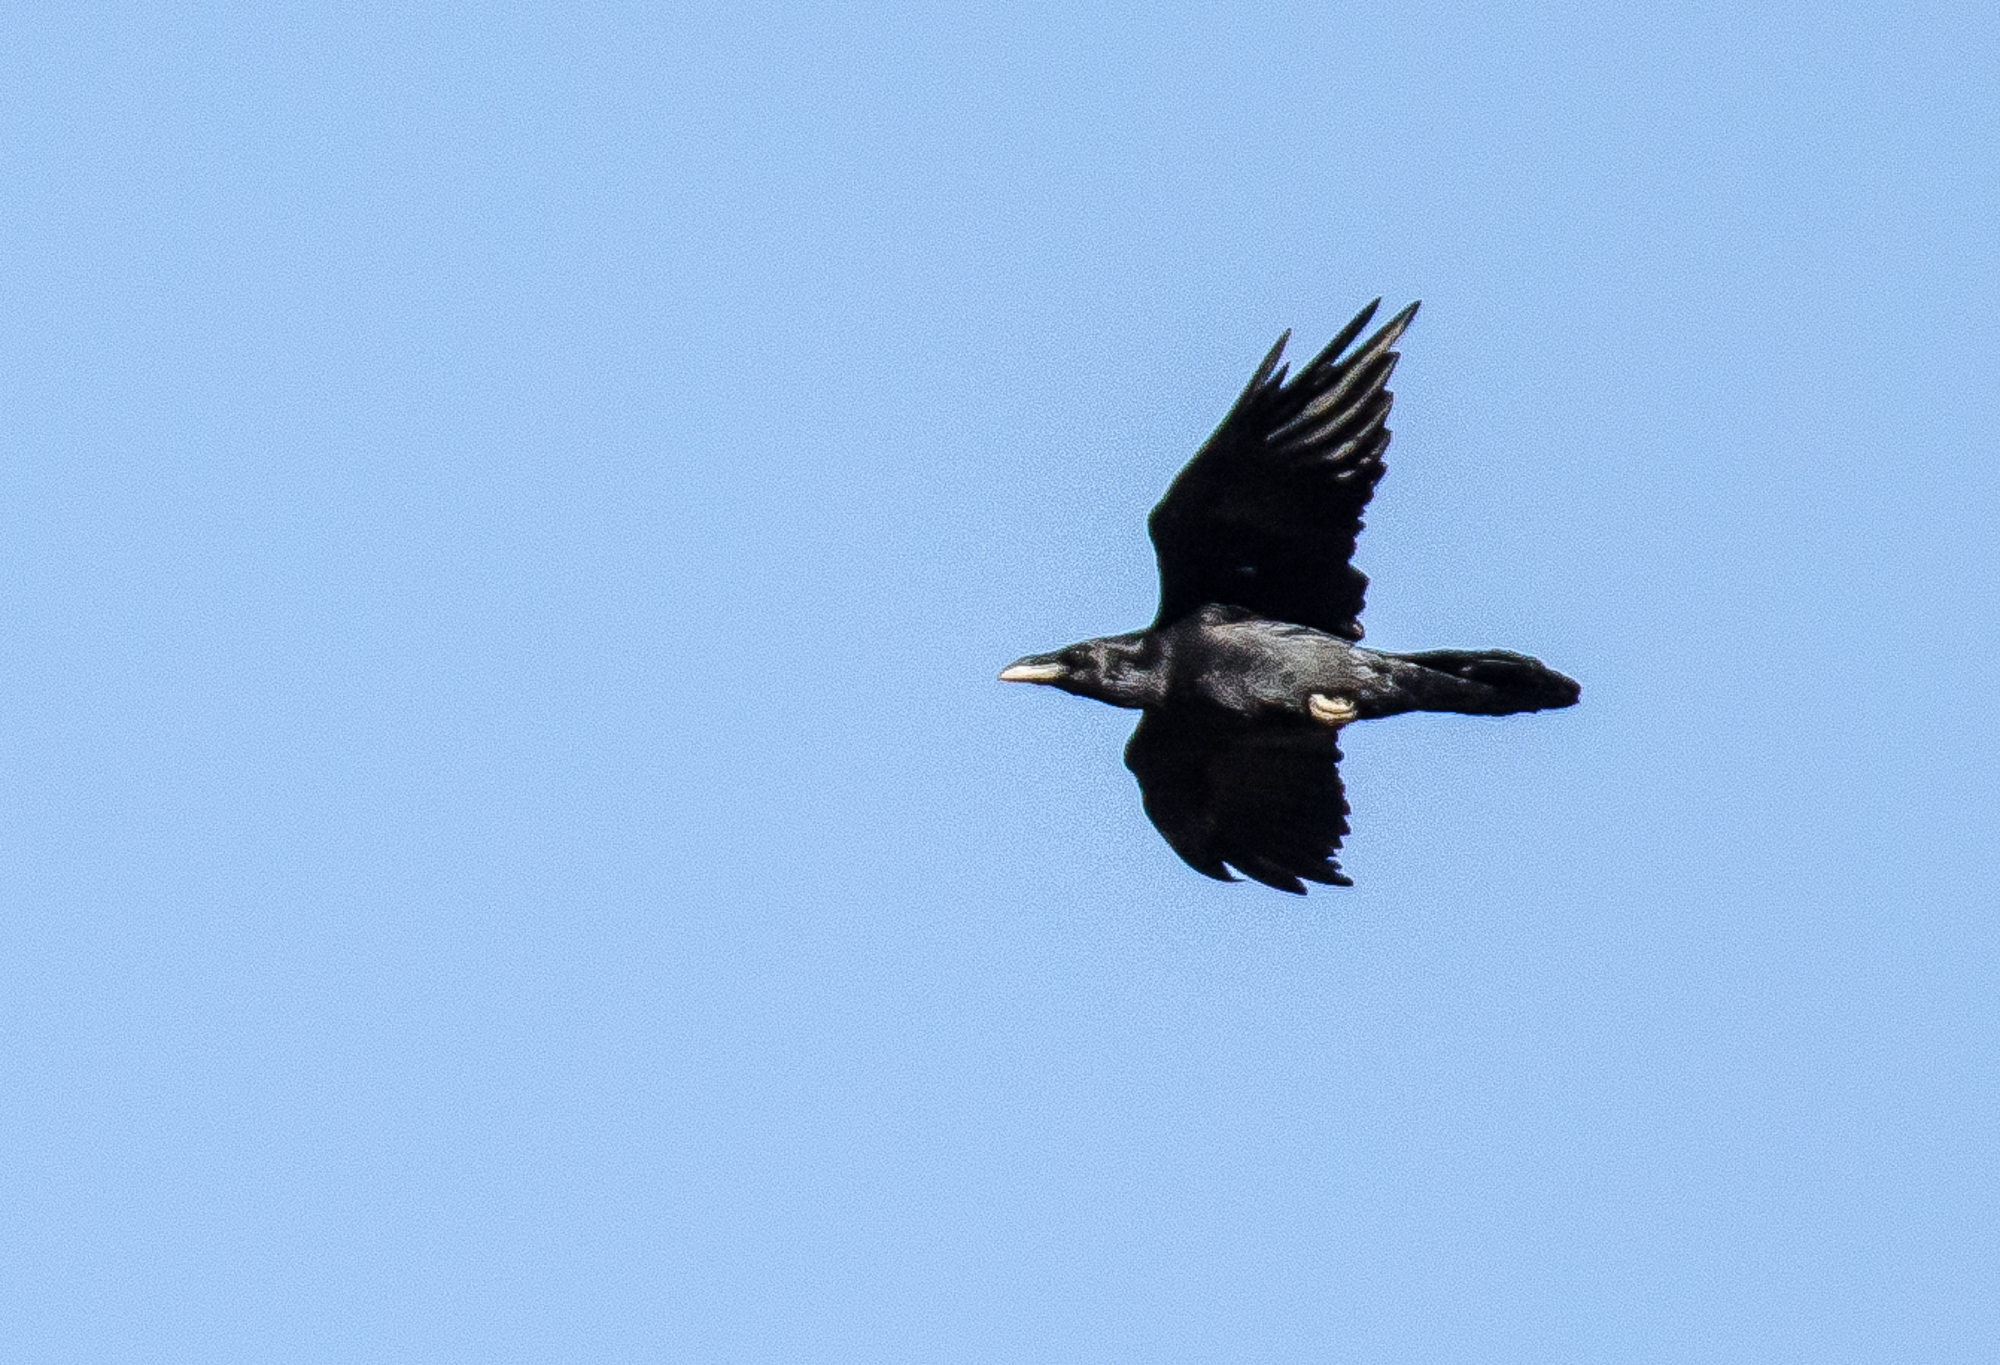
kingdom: Animalia
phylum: Chordata
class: Aves
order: Passeriformes
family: Corvidae
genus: Corvus
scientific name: Corvus corax
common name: Common raven
